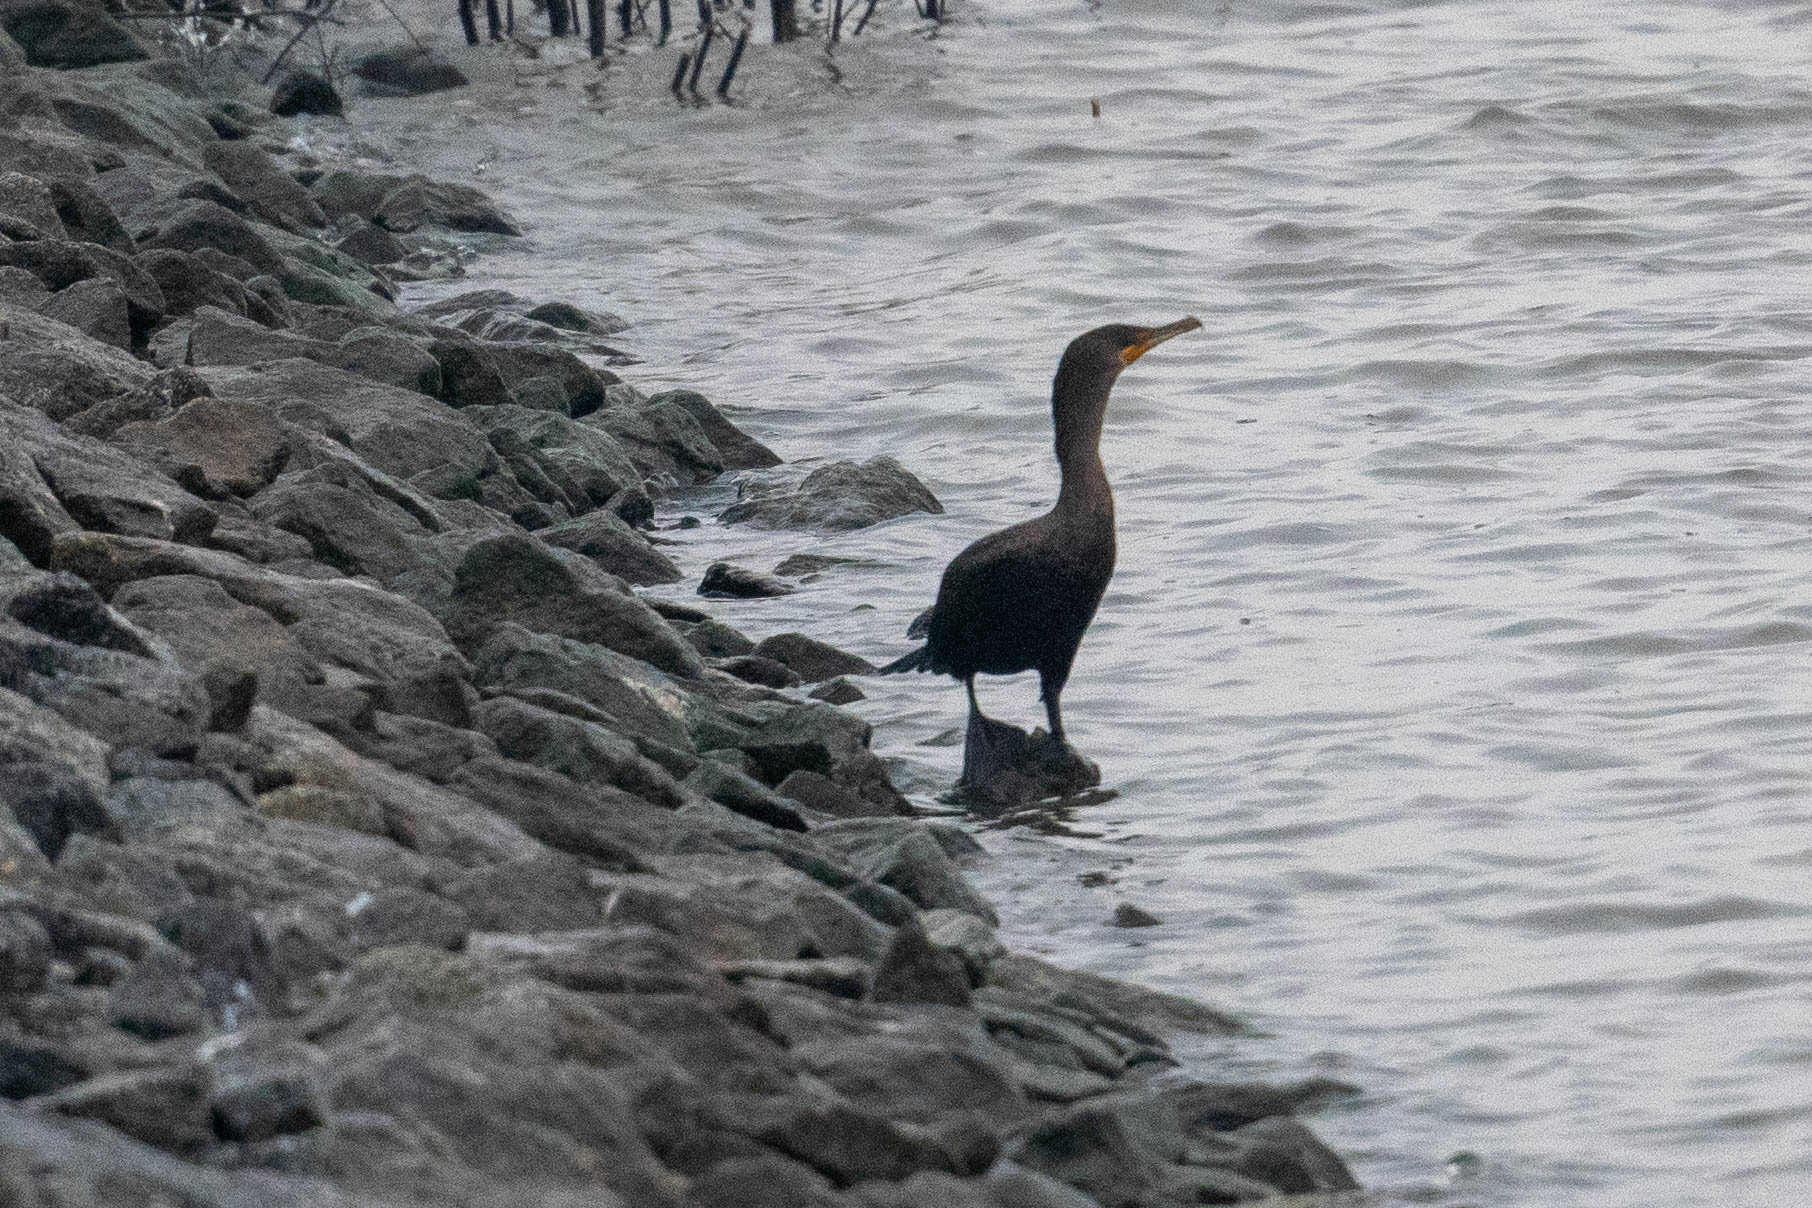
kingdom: Animalia
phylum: Chordata
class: Aves
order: Suliformes
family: Phalacrocoracidae
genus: Phalacrocorax
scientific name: Phalacrocorax auritus
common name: Double-crested cormorant
